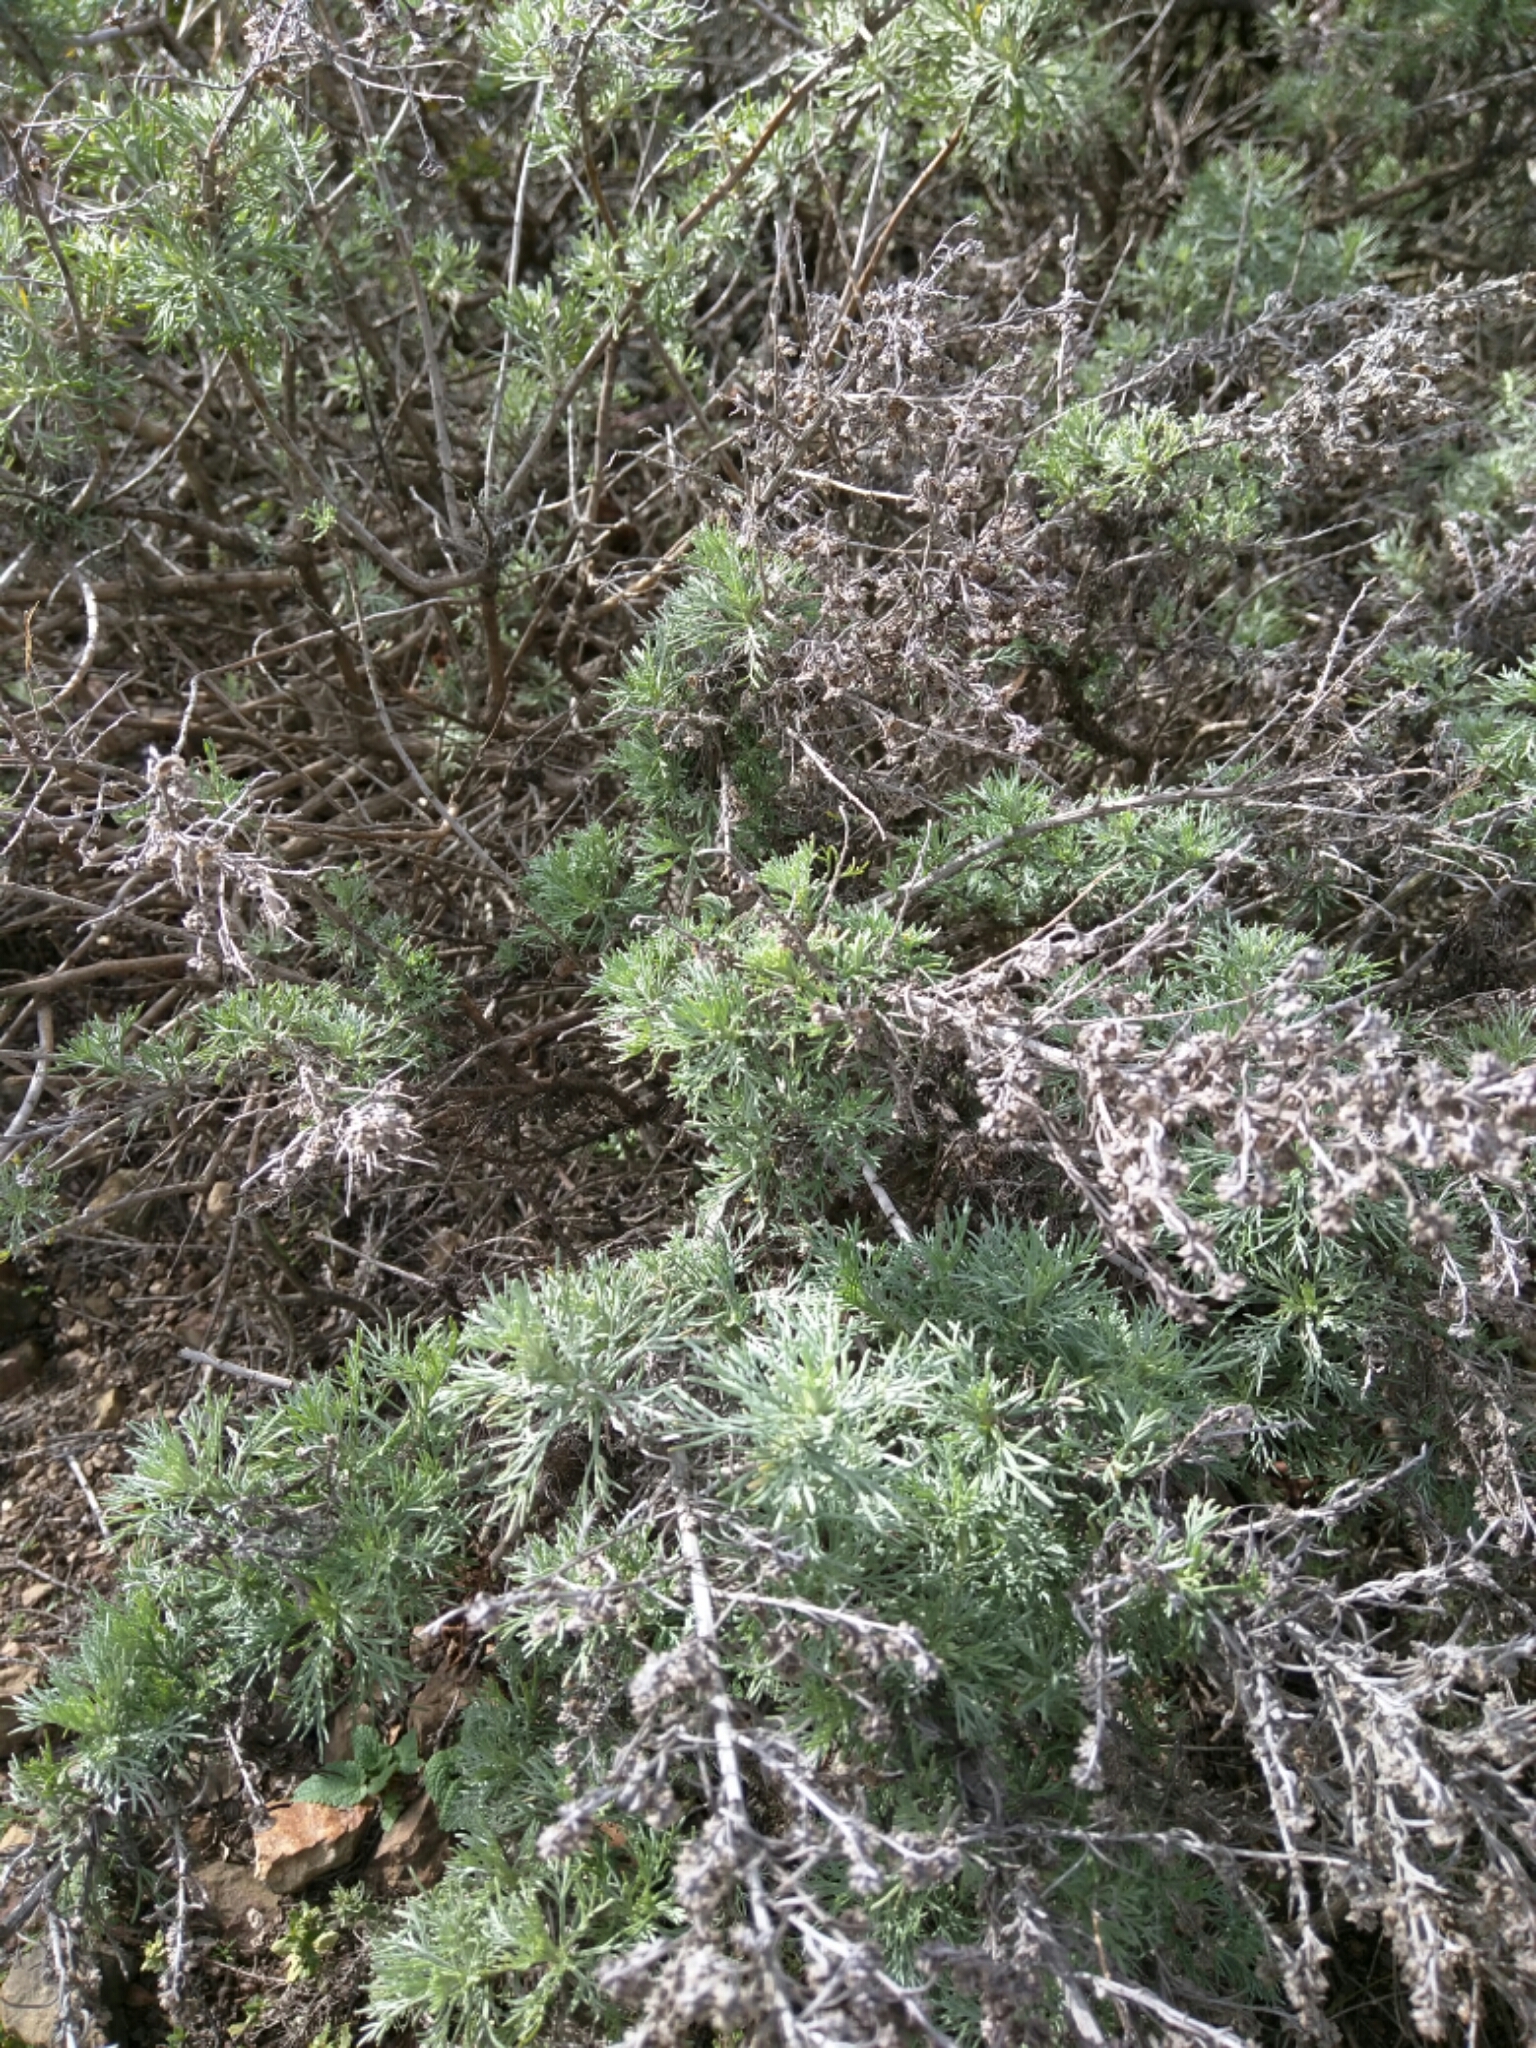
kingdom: Plantae
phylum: Tracheophyta
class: Magnoliopsida
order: Asterales
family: Asteraceae
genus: Artemisia
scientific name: Artemisia californica
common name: California sagebrush
